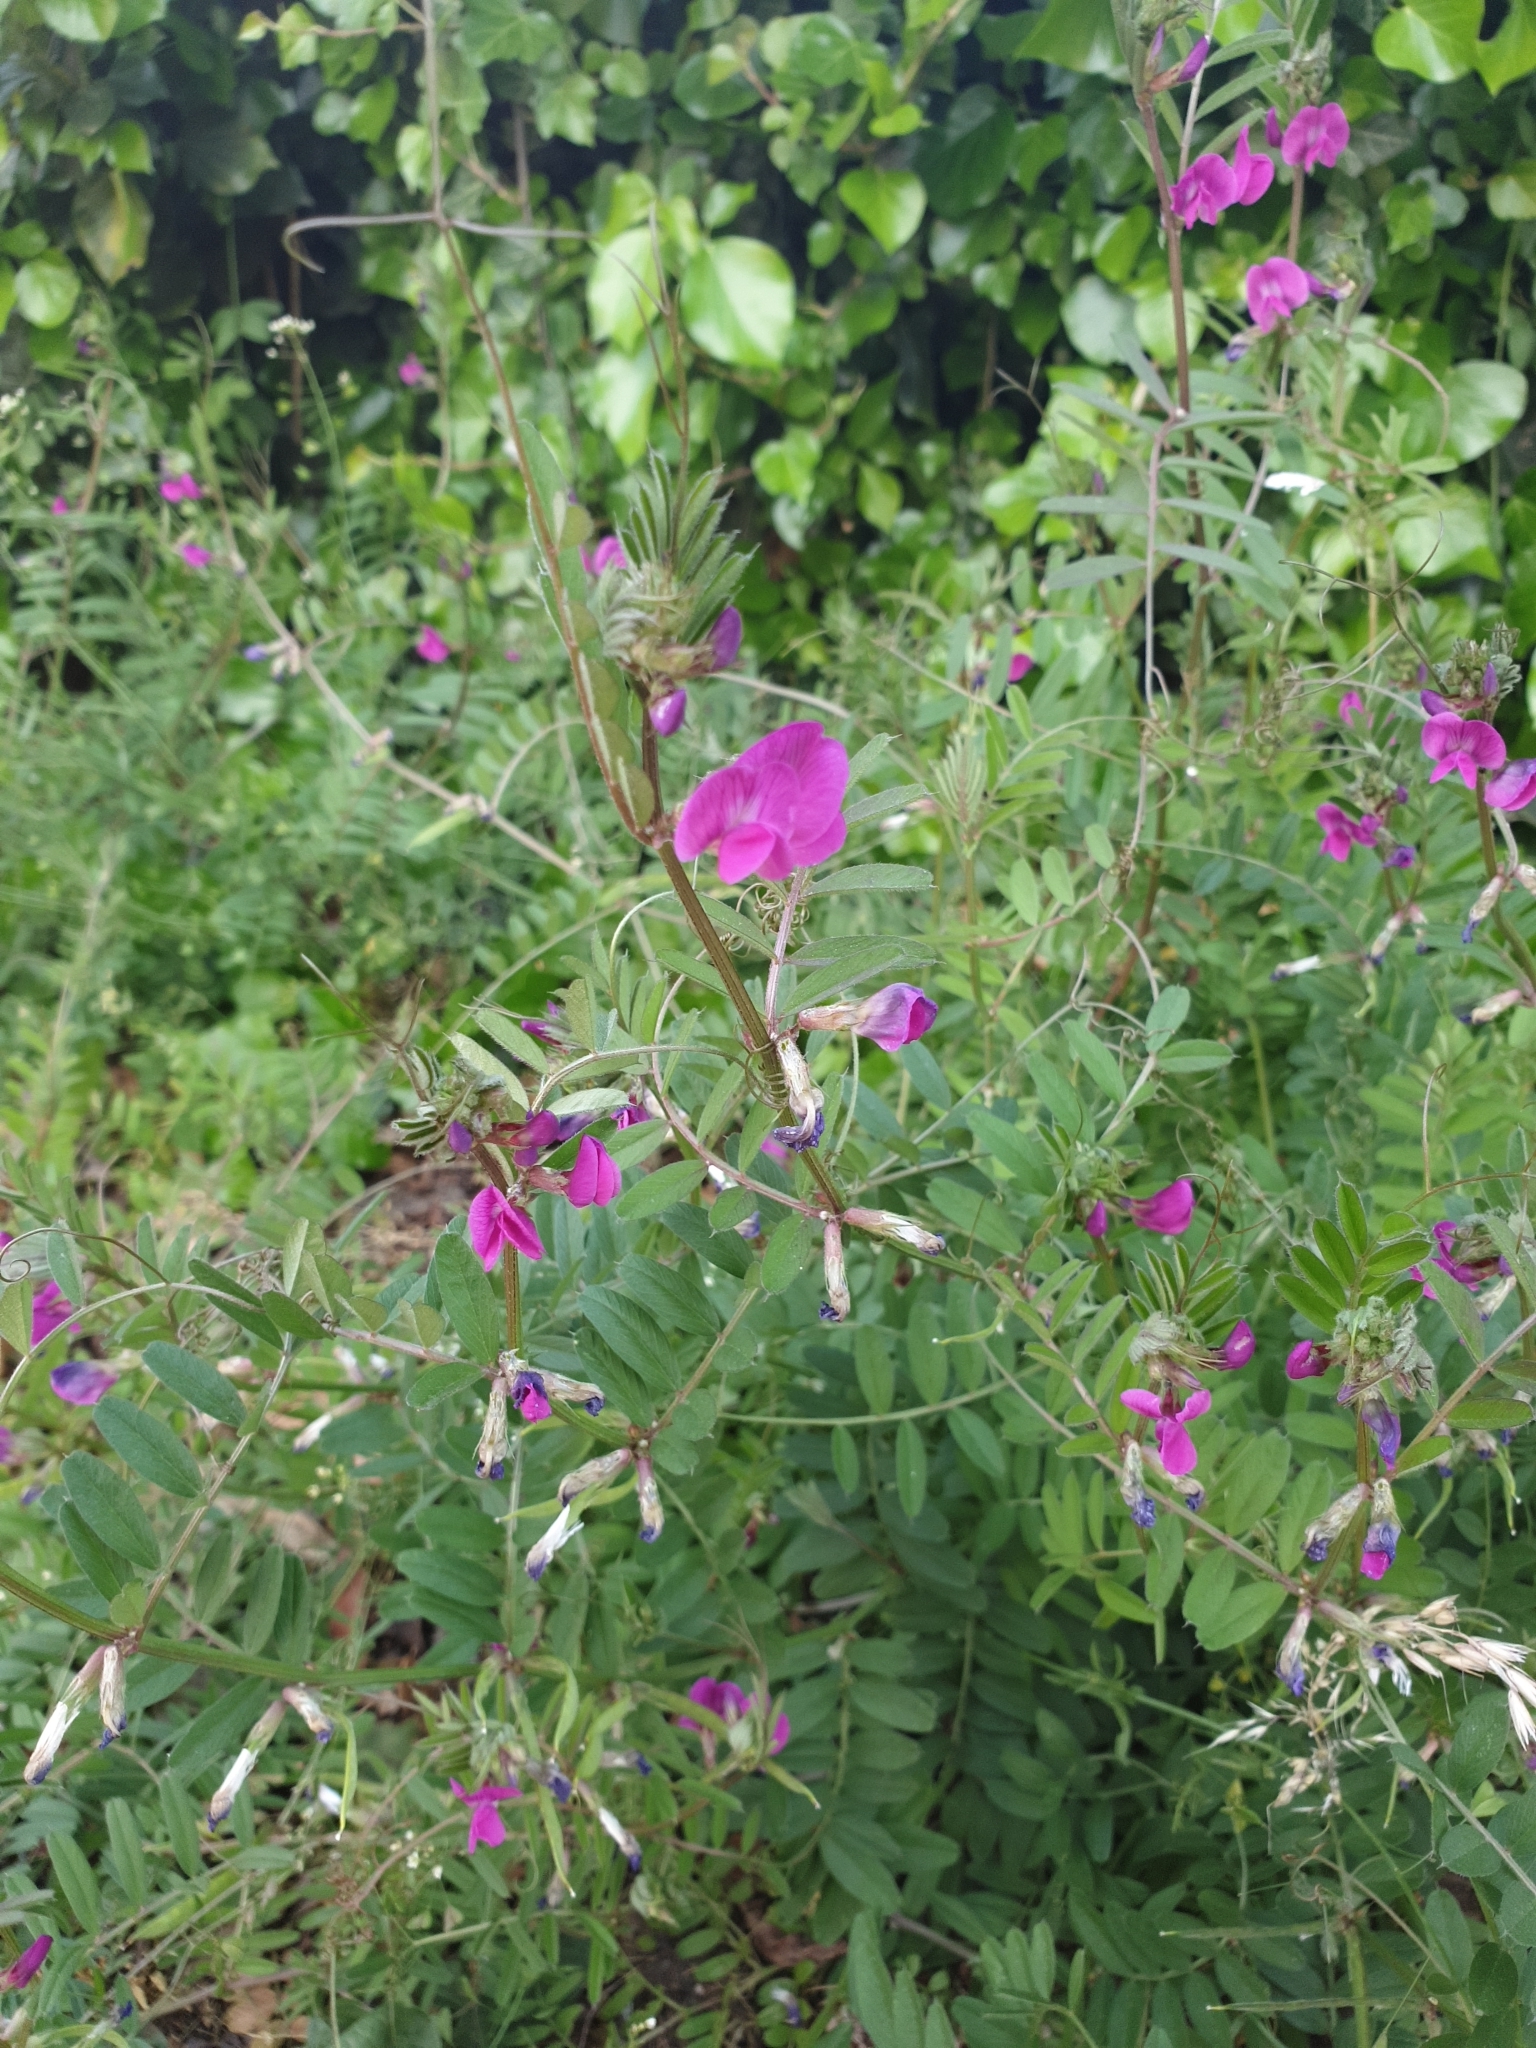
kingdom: Plantae
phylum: Tracheophyta
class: Magnoliopsida
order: Fabales
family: Fabaceae
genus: Vicia
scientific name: Vicia sativa
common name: Garden vetch
